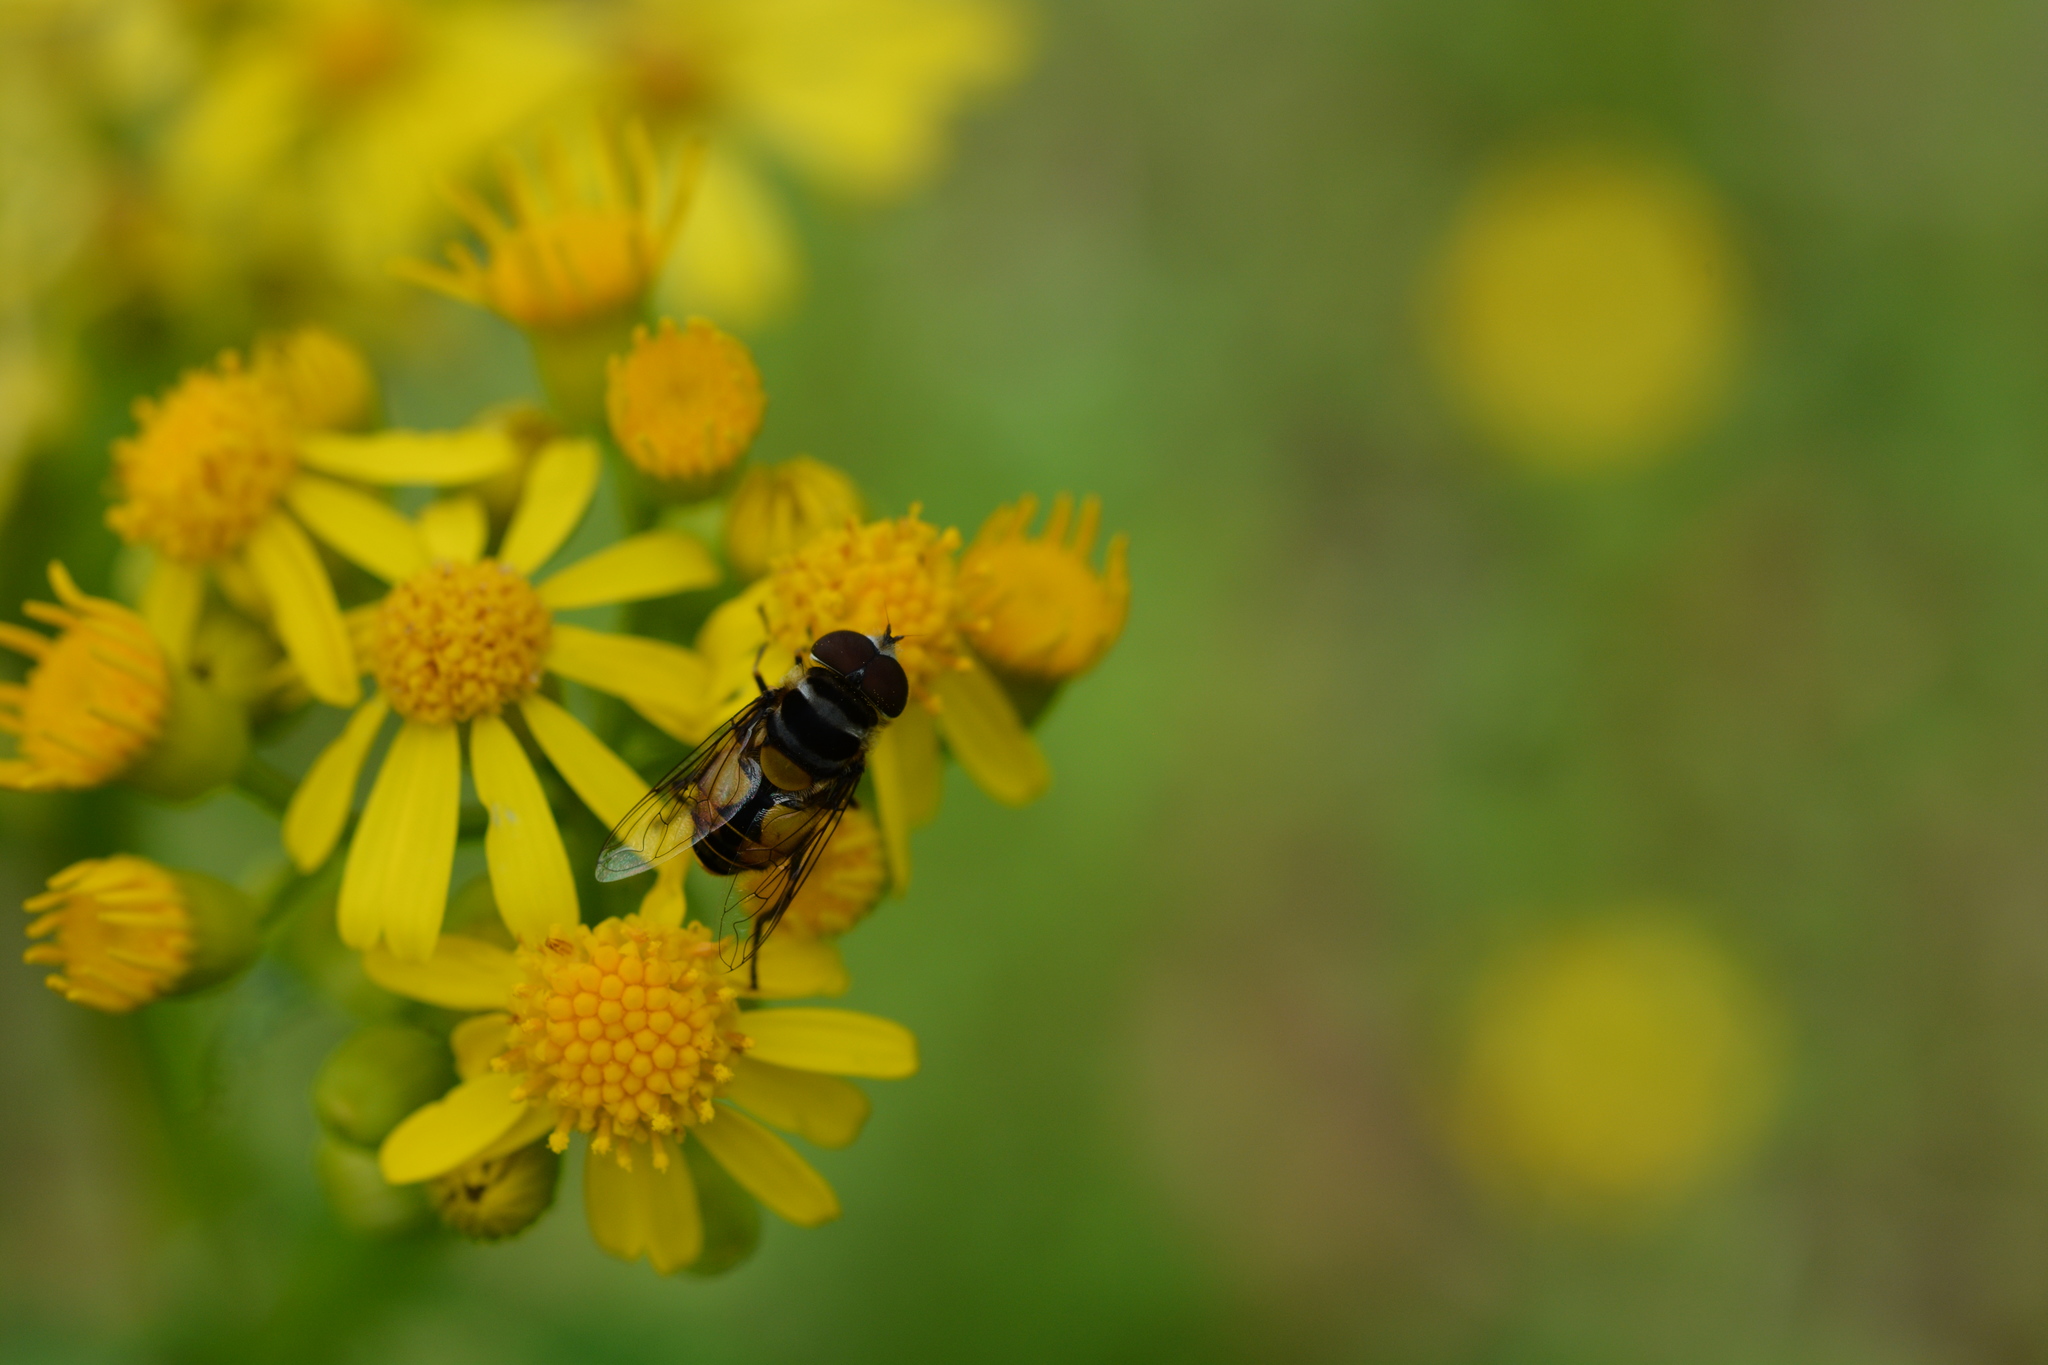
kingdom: Animalia
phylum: Arthropoda
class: Insecta
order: Diptera
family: Syrphidae
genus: Palpada
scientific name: Palpada vinetorum
